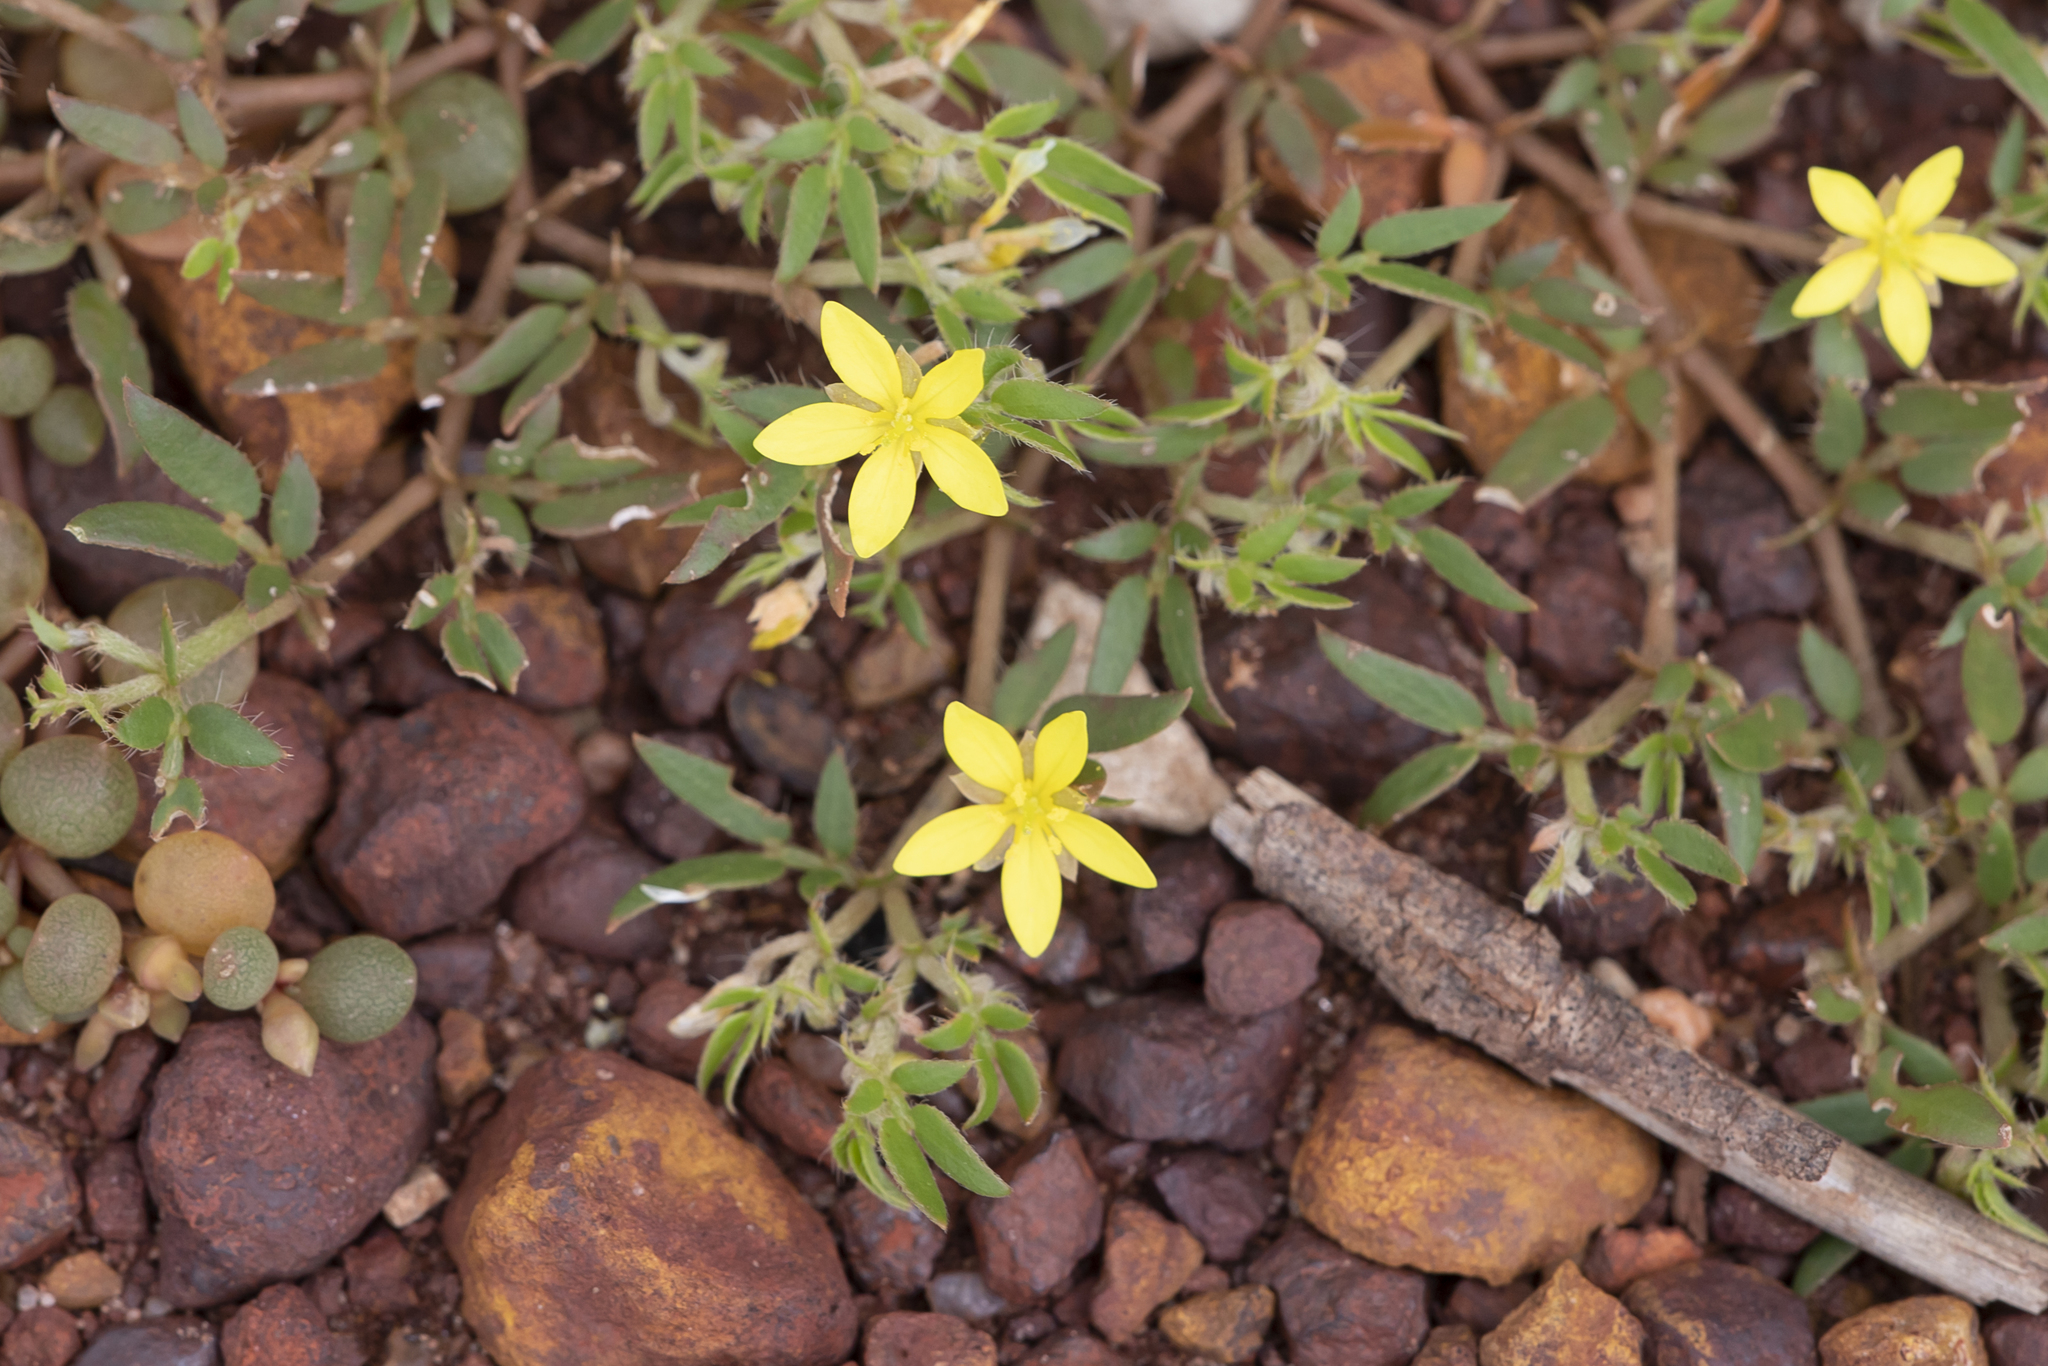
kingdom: Plantae
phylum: Tracheophyta
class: Magnoliopsida
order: Zygophyllales
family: Zygophyllaceae
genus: Tribulopis
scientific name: Tribulopis pentandra
